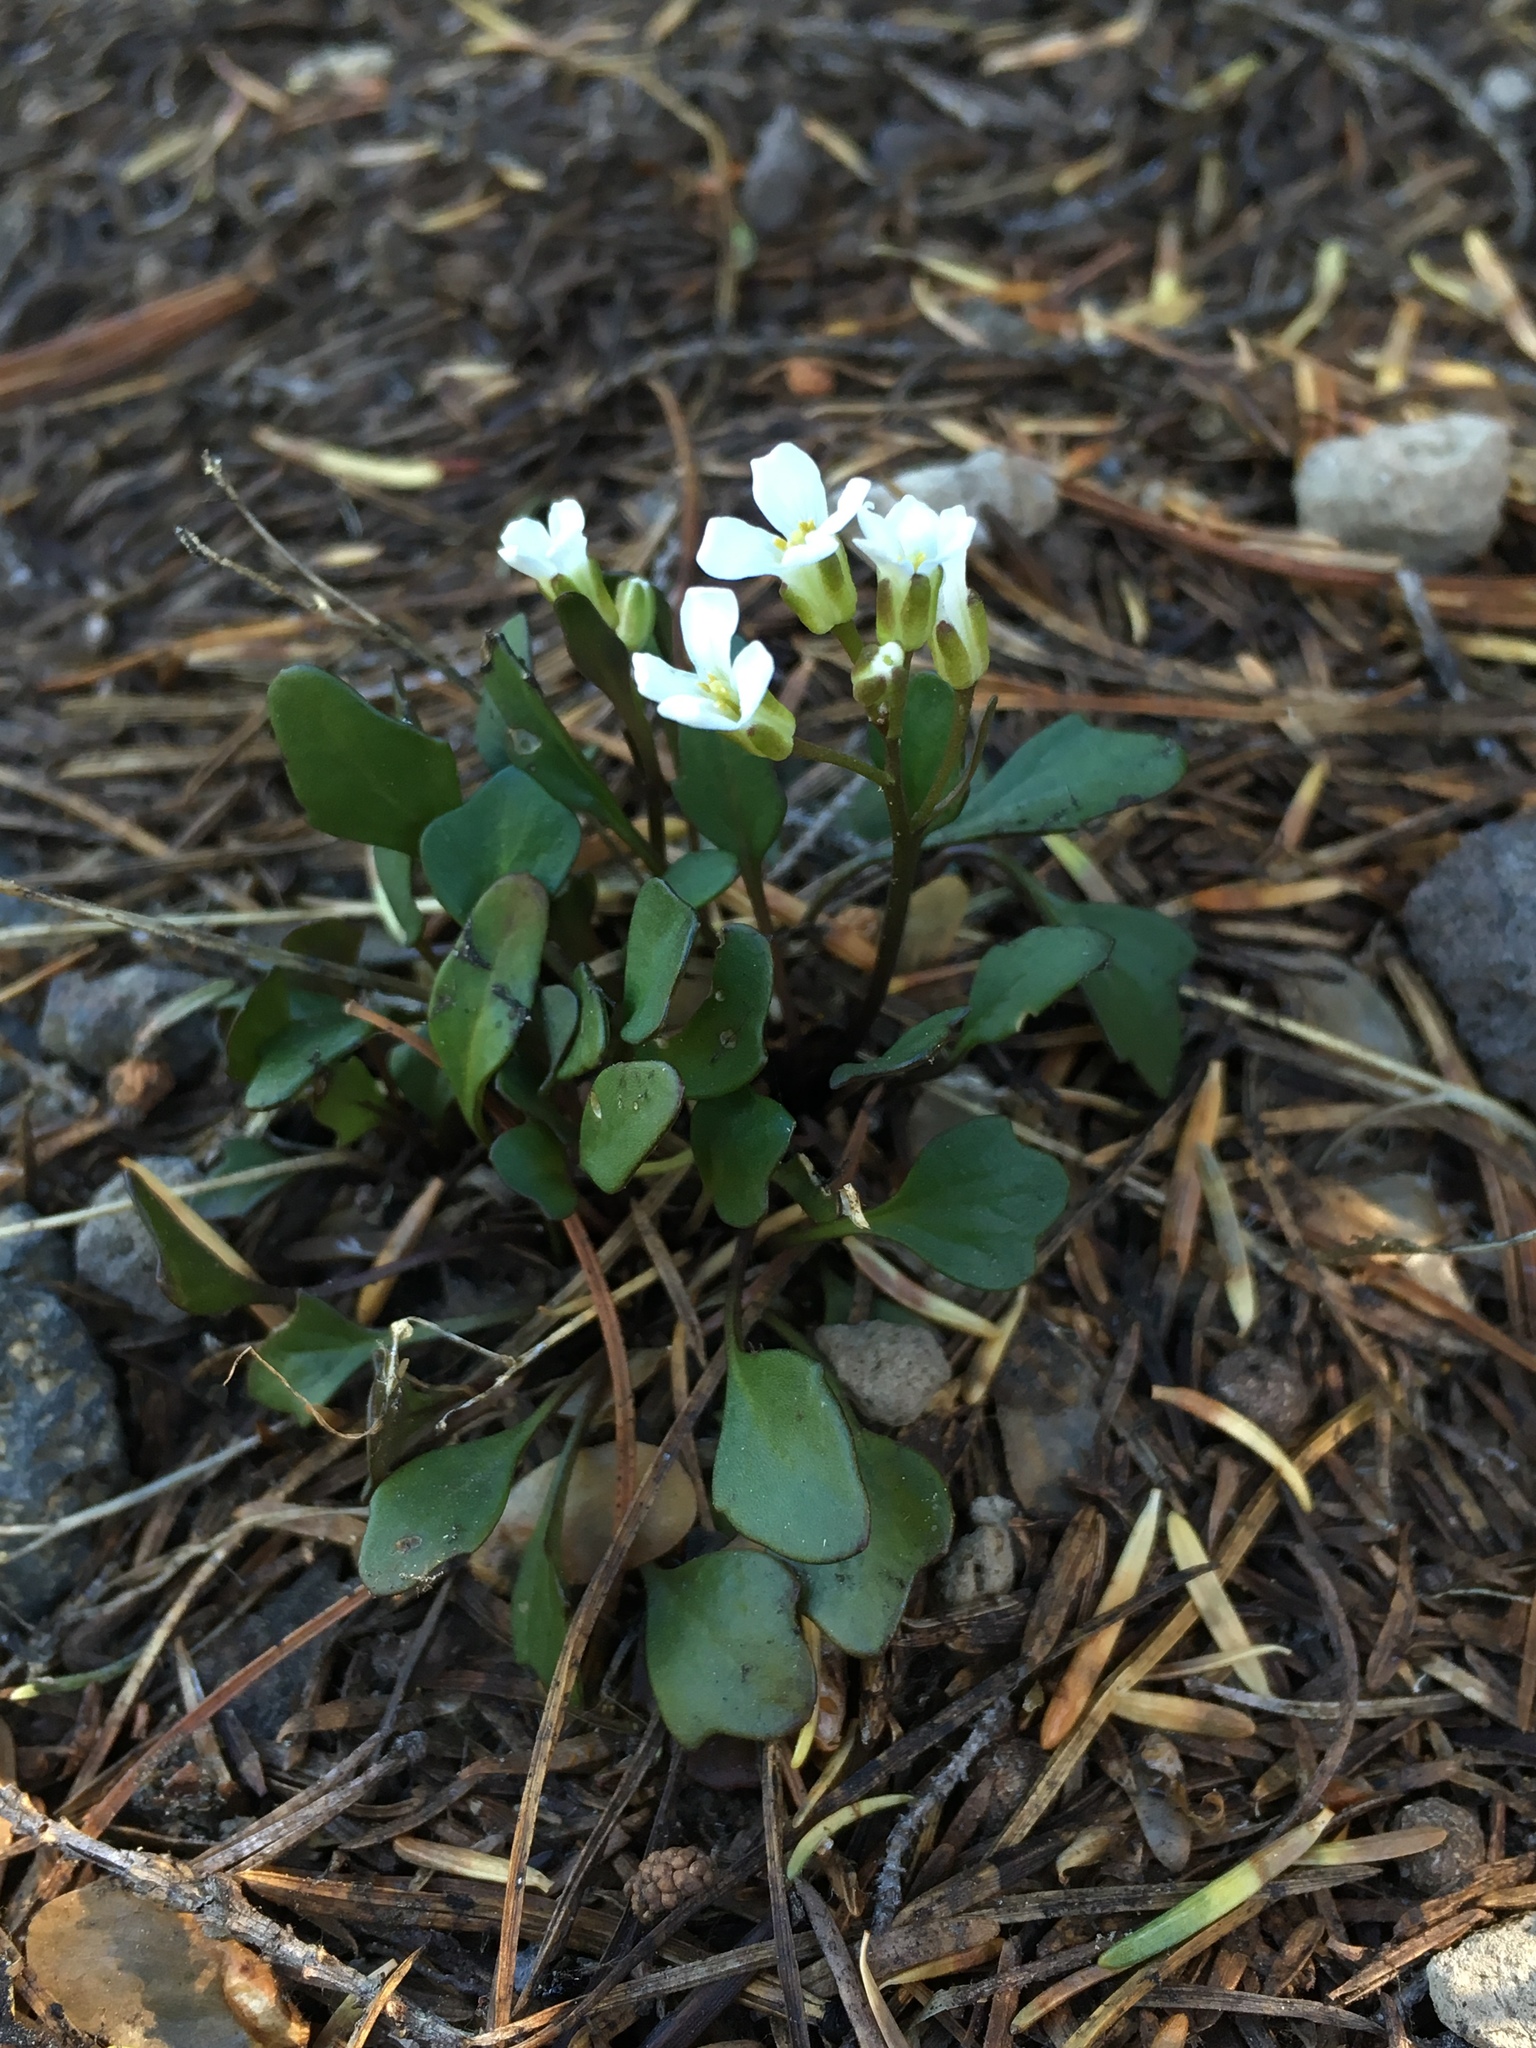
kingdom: Plantae
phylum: Tracheophyta
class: Magnoliopsida
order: Brassicales
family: Brassicaceae
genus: Cardamine
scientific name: Cardamine bellidifolia
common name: Alpine bittercress
